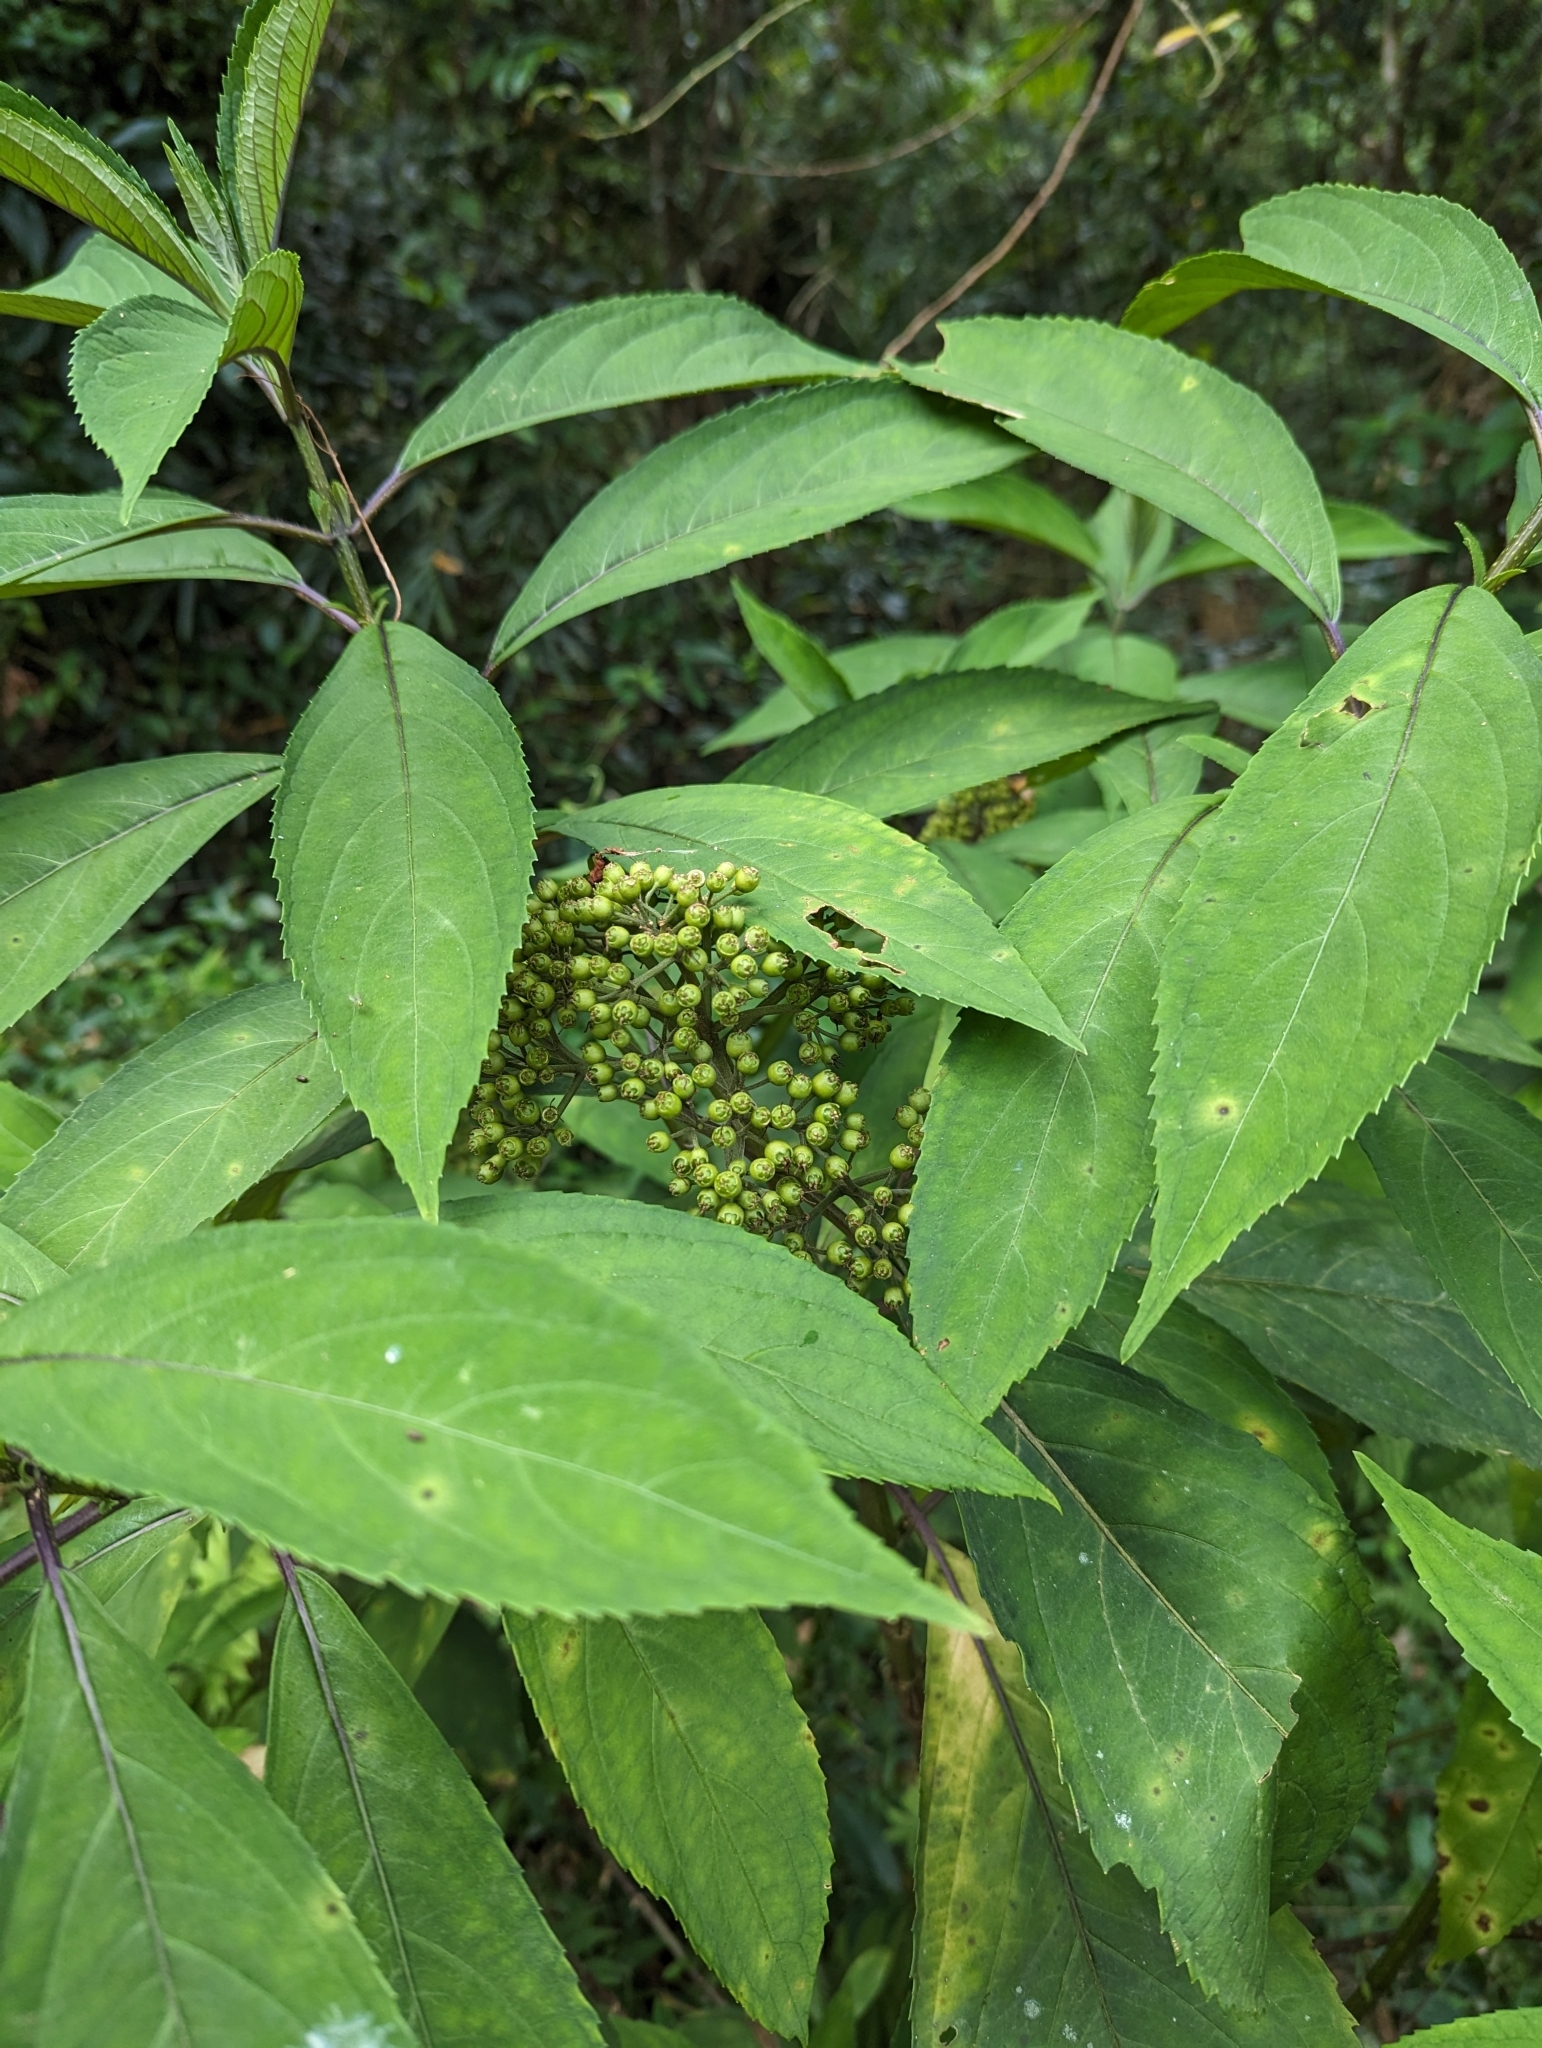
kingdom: Plantae
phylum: Tracheophyta
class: Magnoliopsida
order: Cornales
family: Hydrangeaceae
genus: Hydrangea
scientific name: Hydrangea febrifuga
